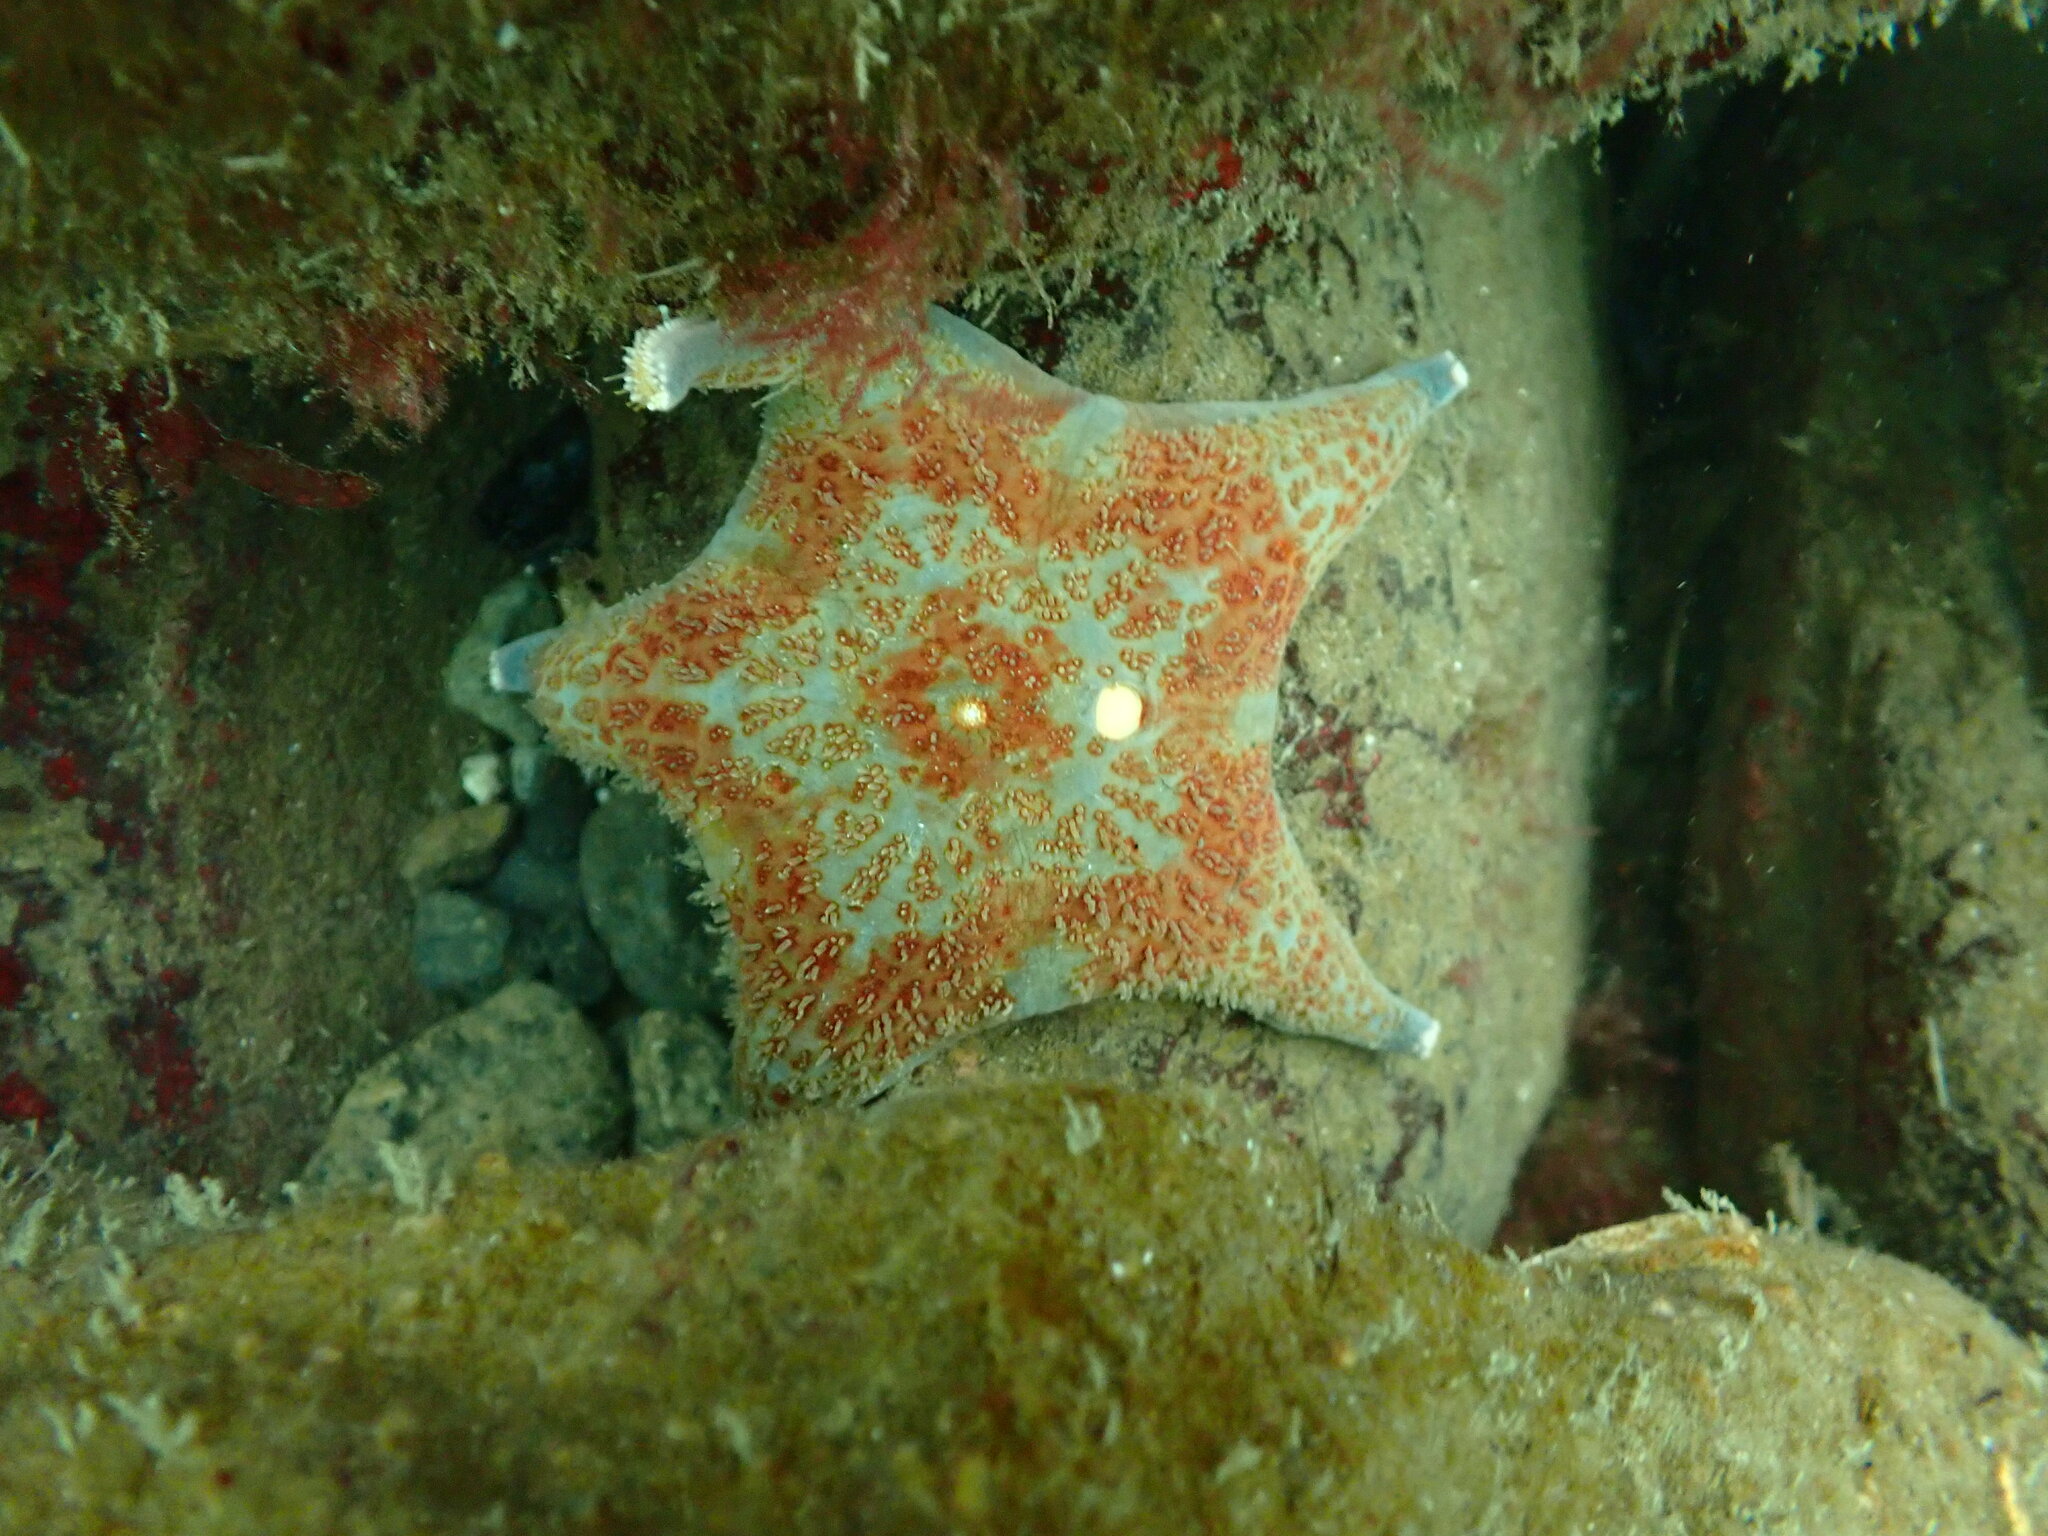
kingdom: Animalia
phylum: Echinodermata
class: Asteroidea
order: Valvatida
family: Asteropseidae
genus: Dermasterias
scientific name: Dermasterias imbricata
